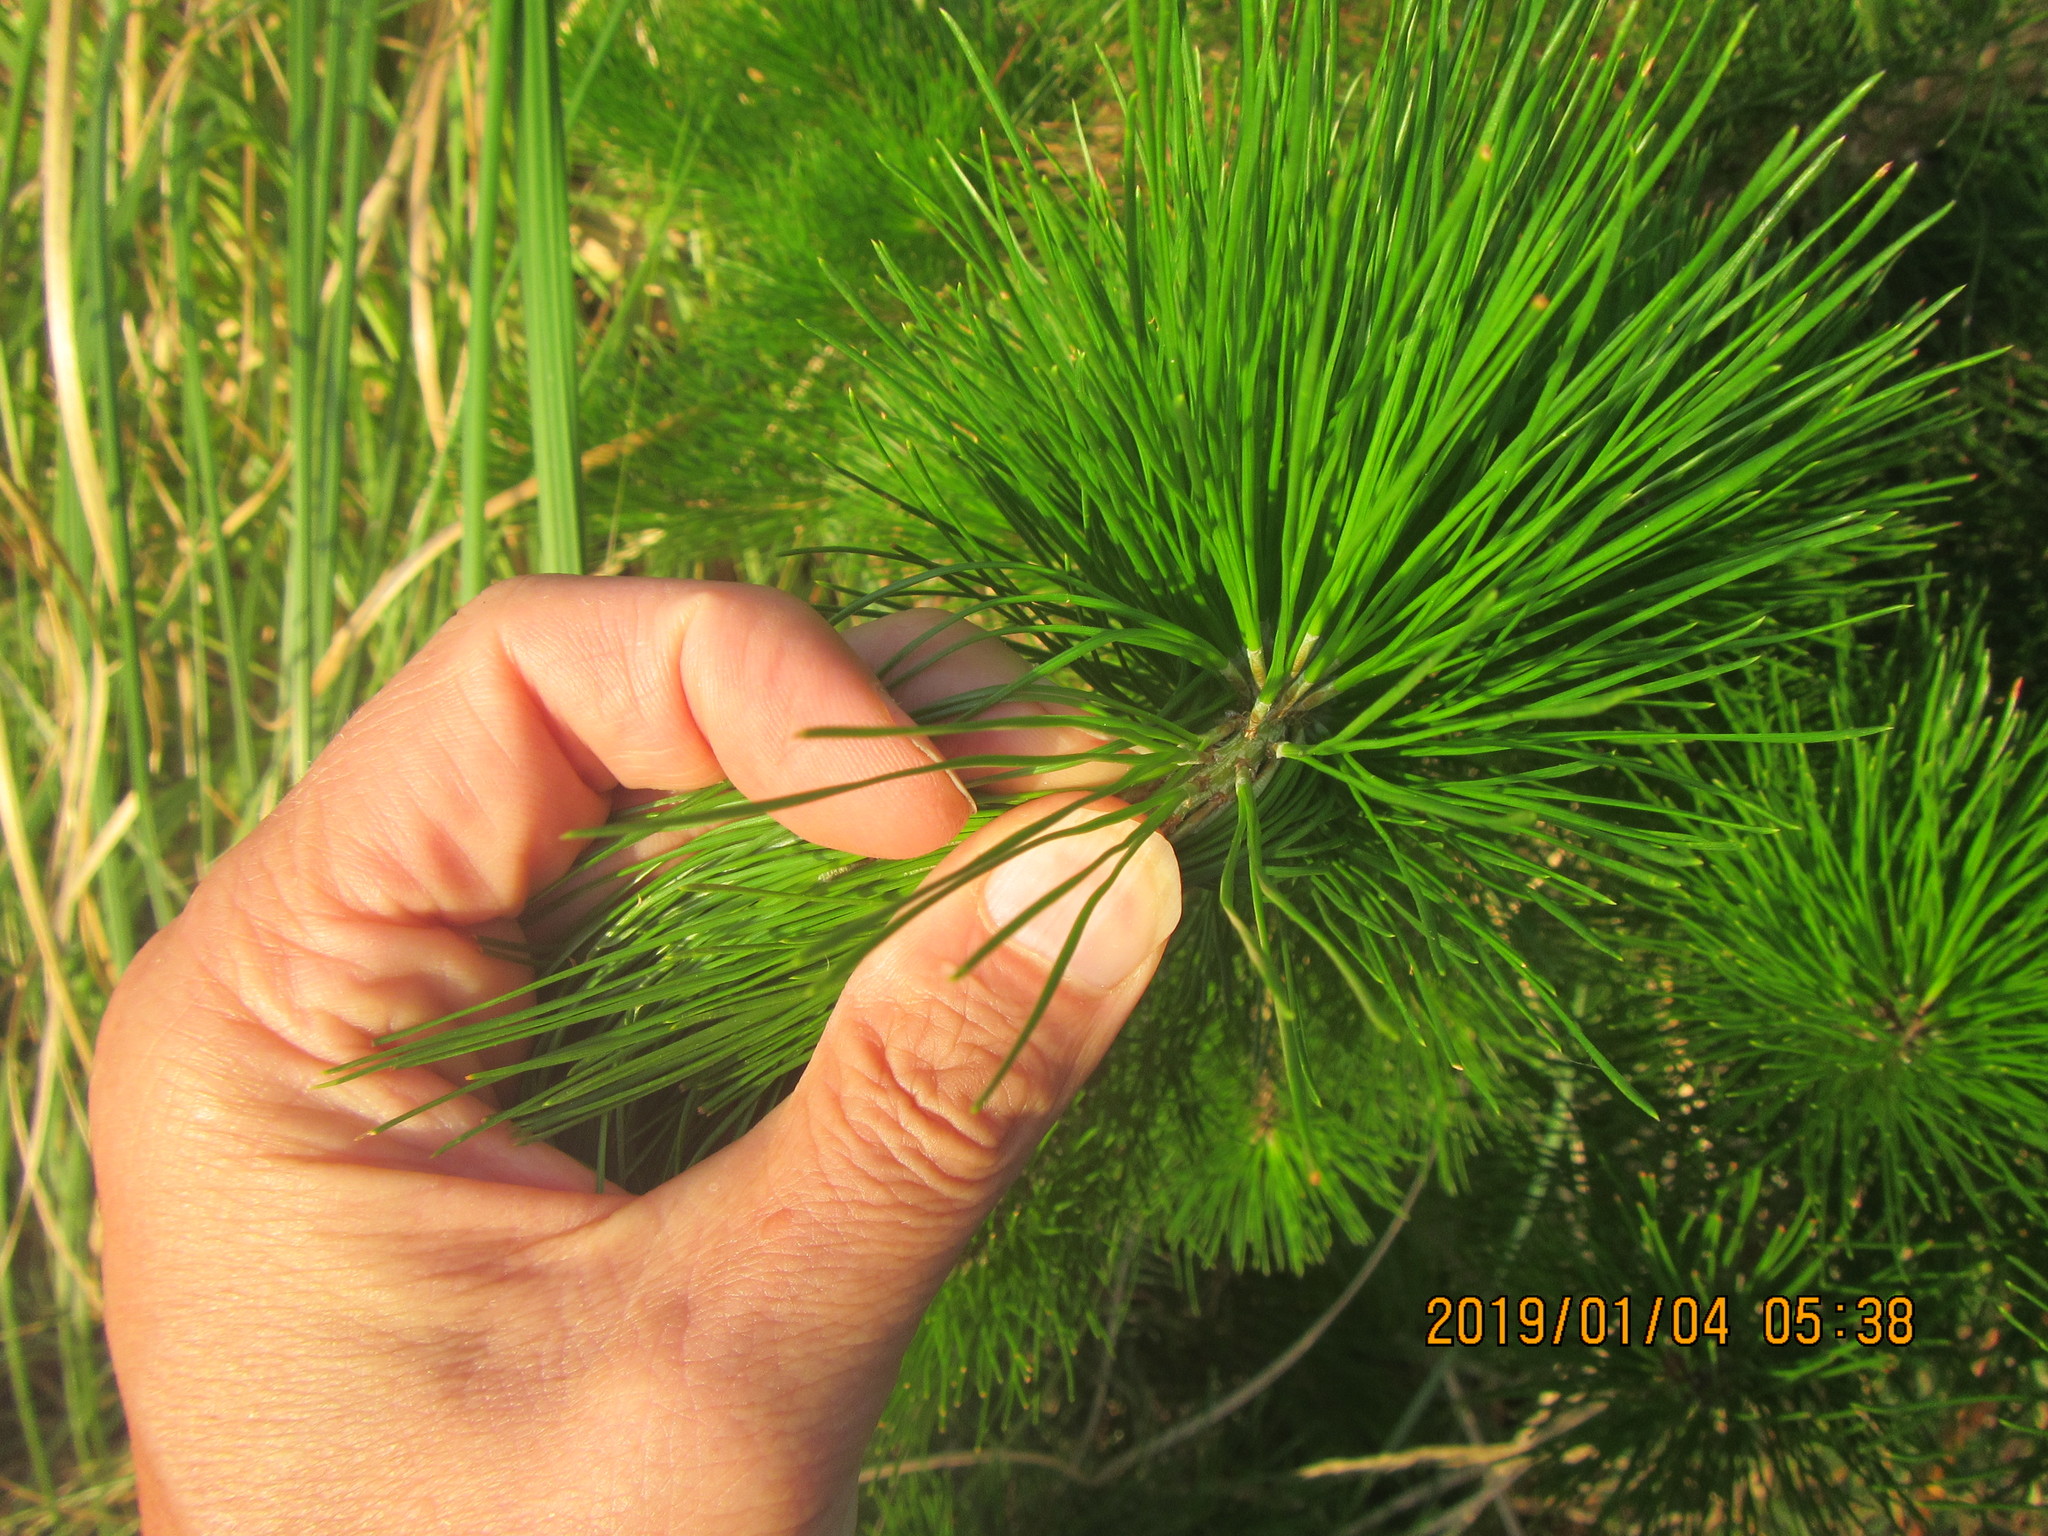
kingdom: Plantae
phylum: Tracheophyta
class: Pinopsida
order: Pinales
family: Pinaceae
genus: Pinus
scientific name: Pinus radiata
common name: Monterey pine
